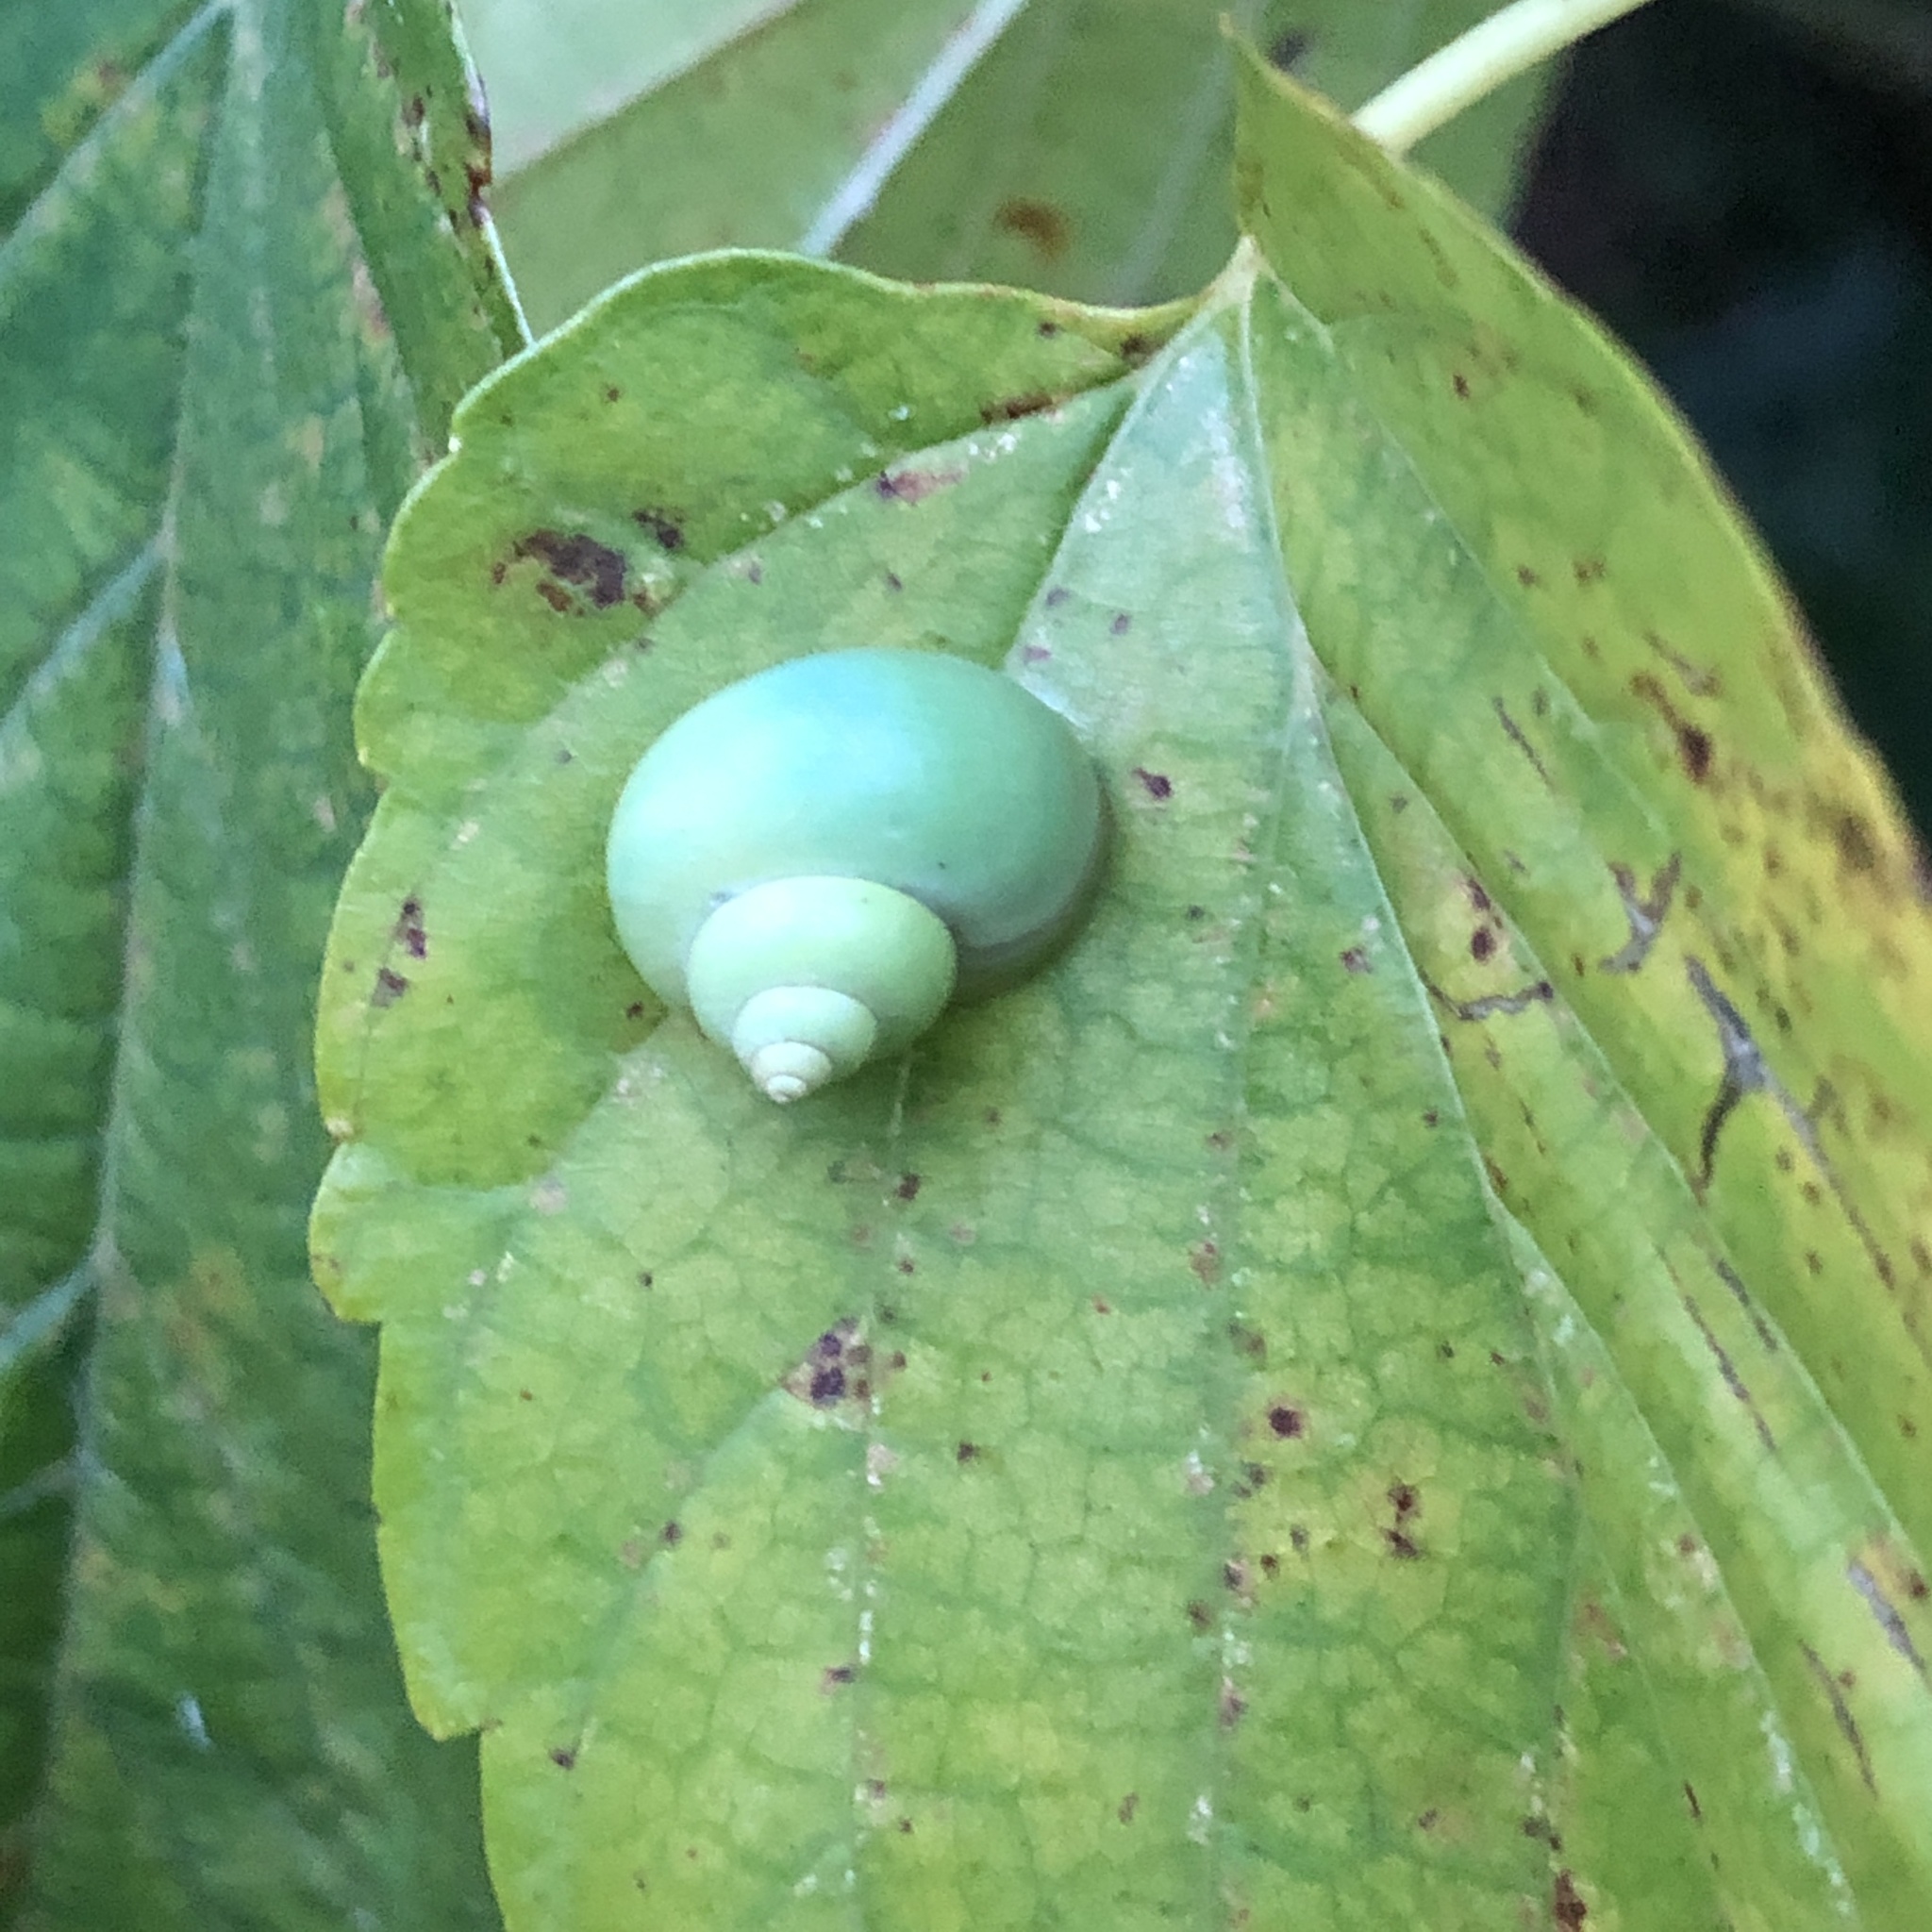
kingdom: Animalia
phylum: Mollusca
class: Gastropoda
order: Architaenioglossa
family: Cyclophoridae
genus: Leptopoma
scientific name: Leptopoma nitidum
